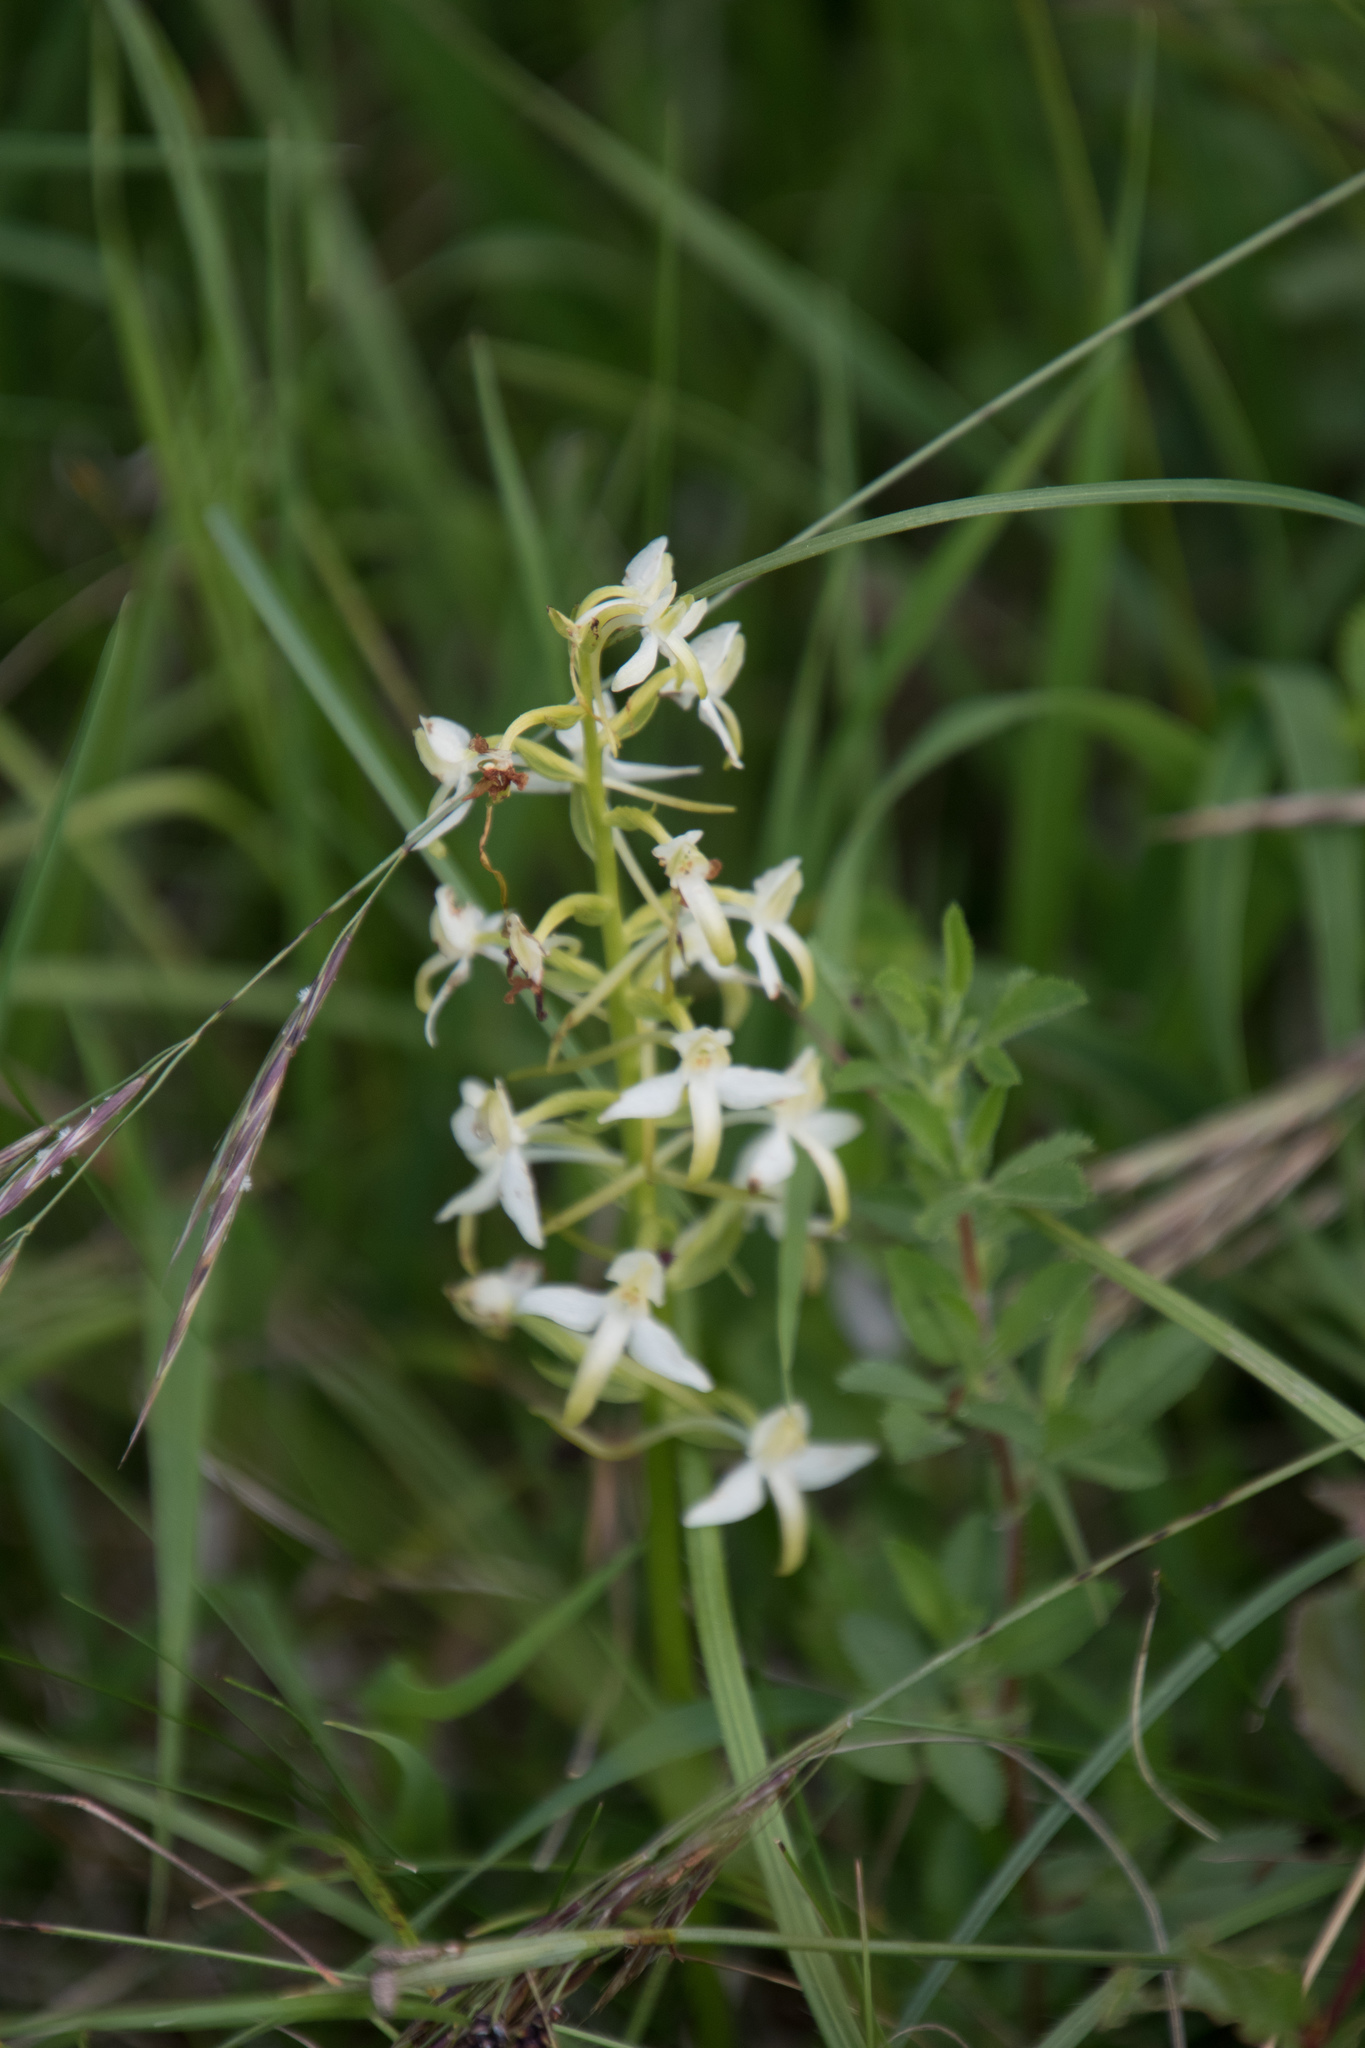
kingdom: Plantae
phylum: Tracheophyta
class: Liliopsida
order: Asparagales
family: Orchidaceae
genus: Platanthera
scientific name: Platanthera bifolia
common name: Lesser butterfly-orchid
